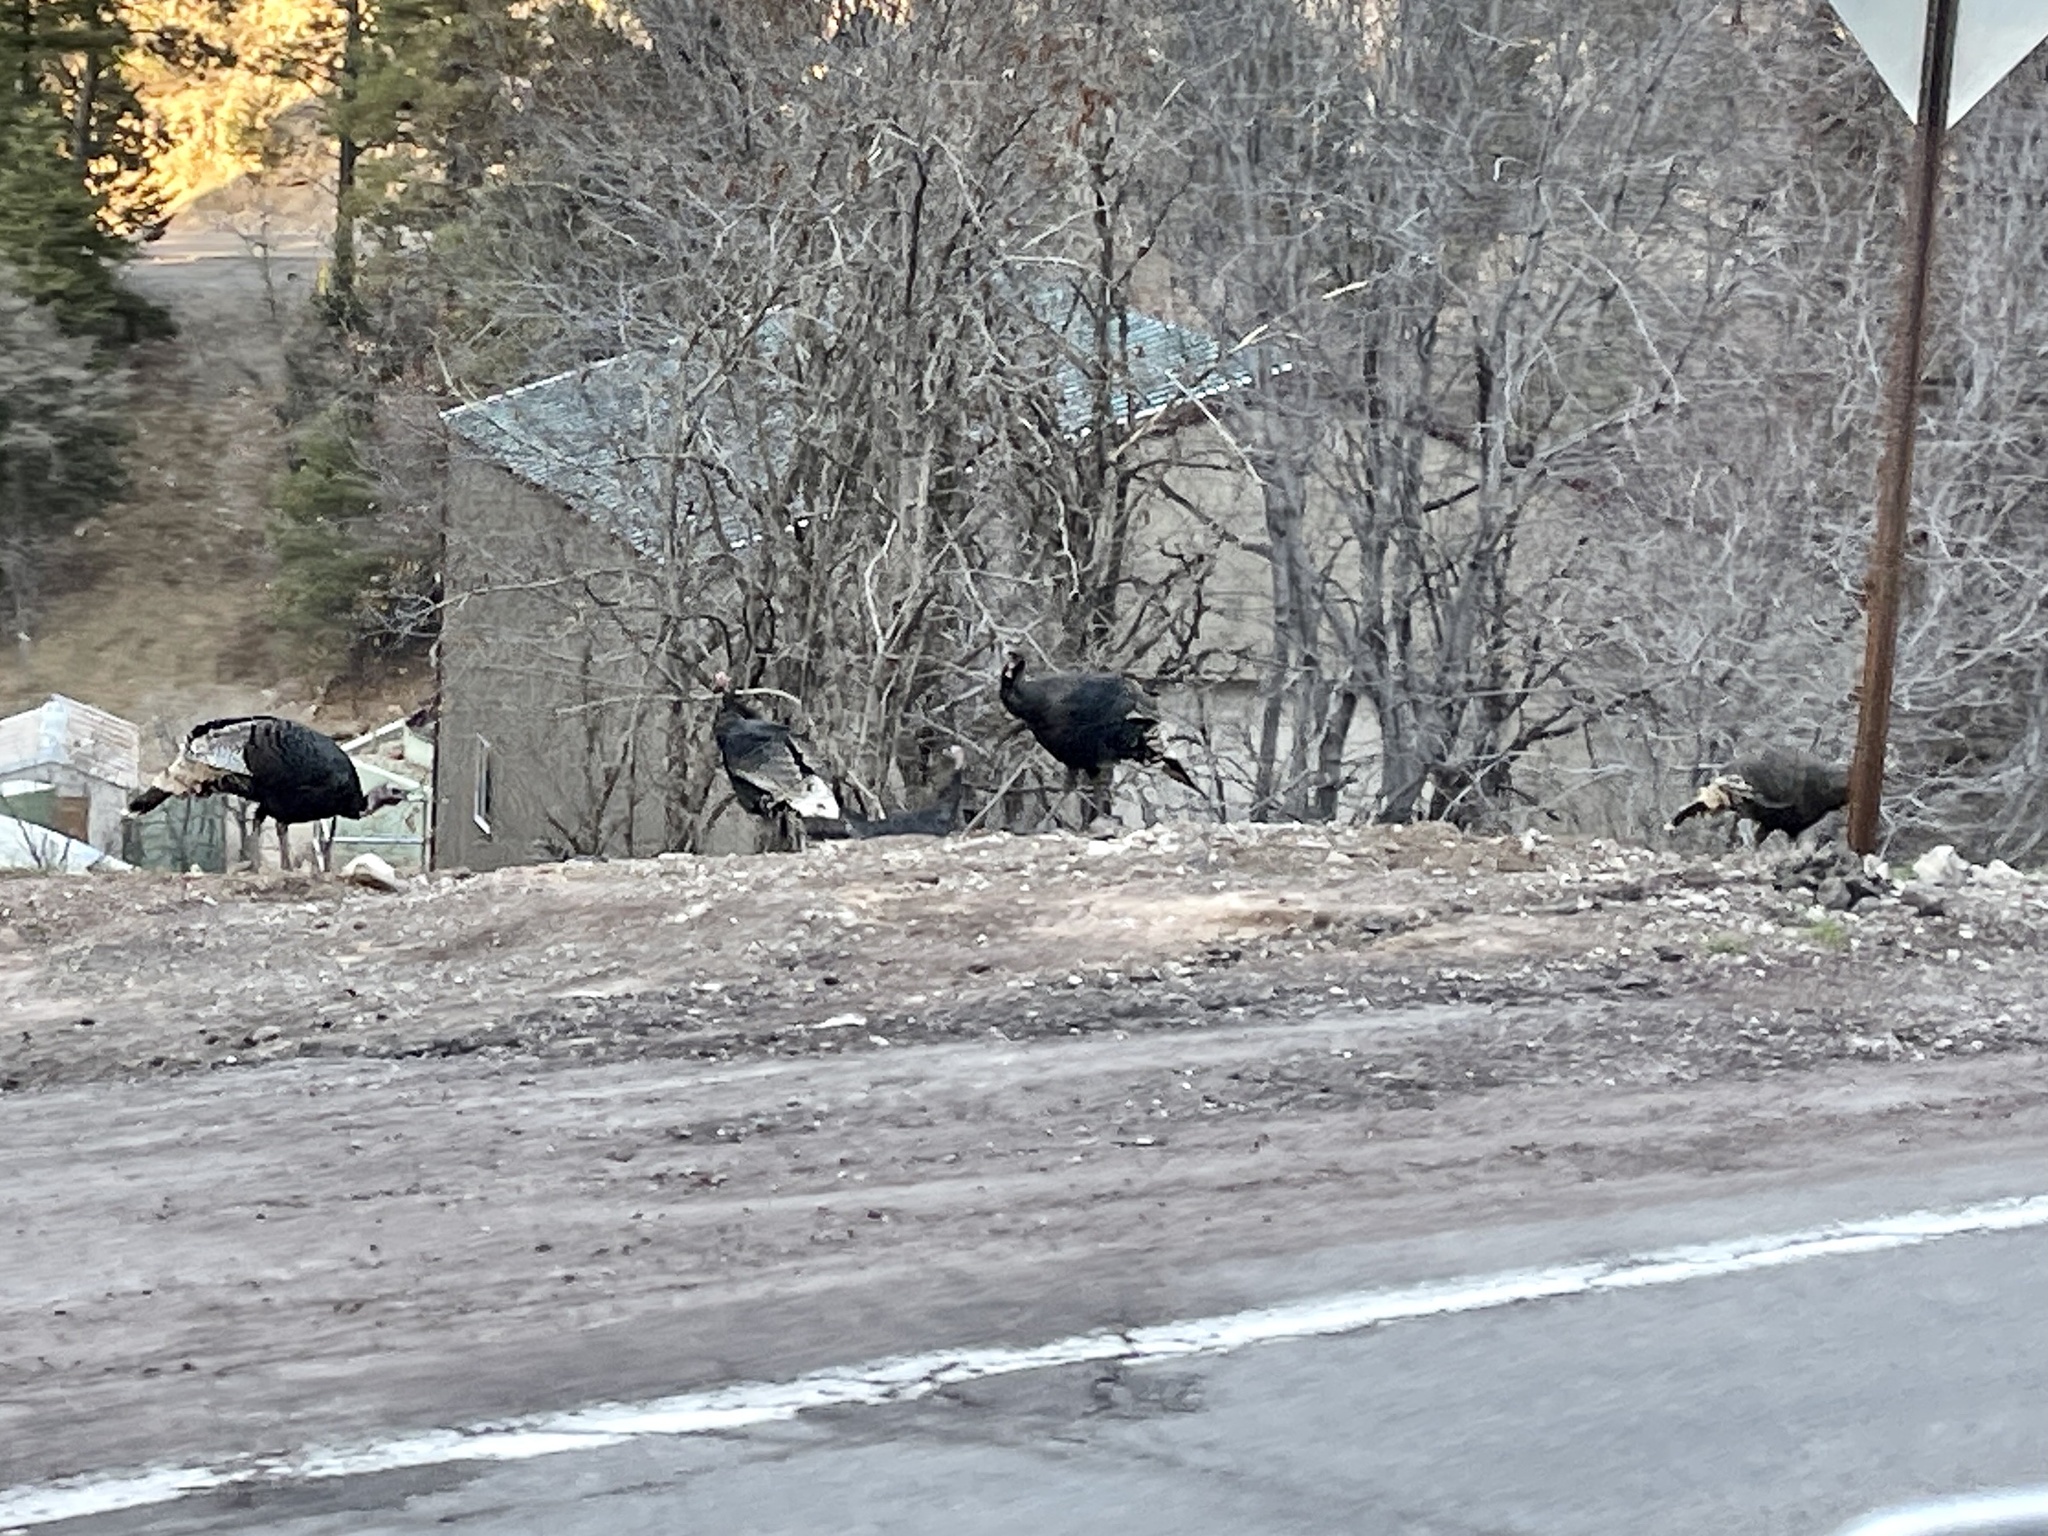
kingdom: Animalia
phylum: Chordata
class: Aves
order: Galliformes
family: Phasianidae
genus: Meleagris
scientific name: Meleagris gallopavo
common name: Wild turkey
